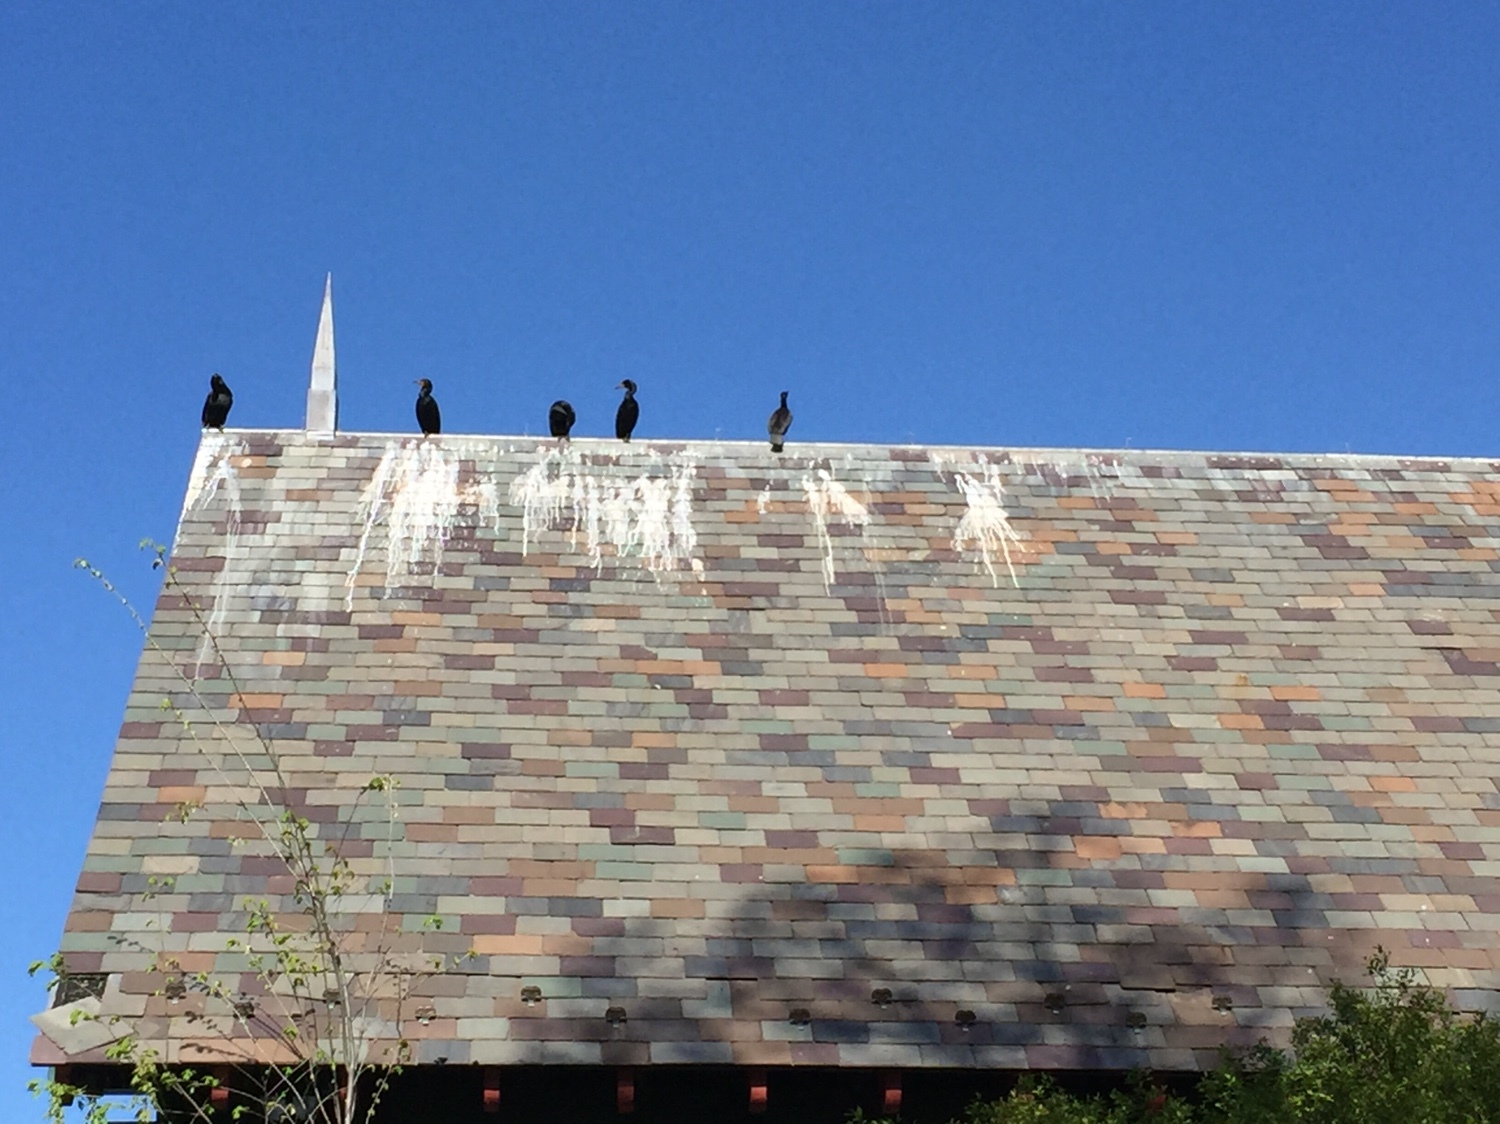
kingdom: Animalia
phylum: Chordata
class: Aves
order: Suliformes
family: Phalacrocoracidae
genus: Phalacrocorax
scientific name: Phalacrocorax auritus
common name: Double-crested cormorant
